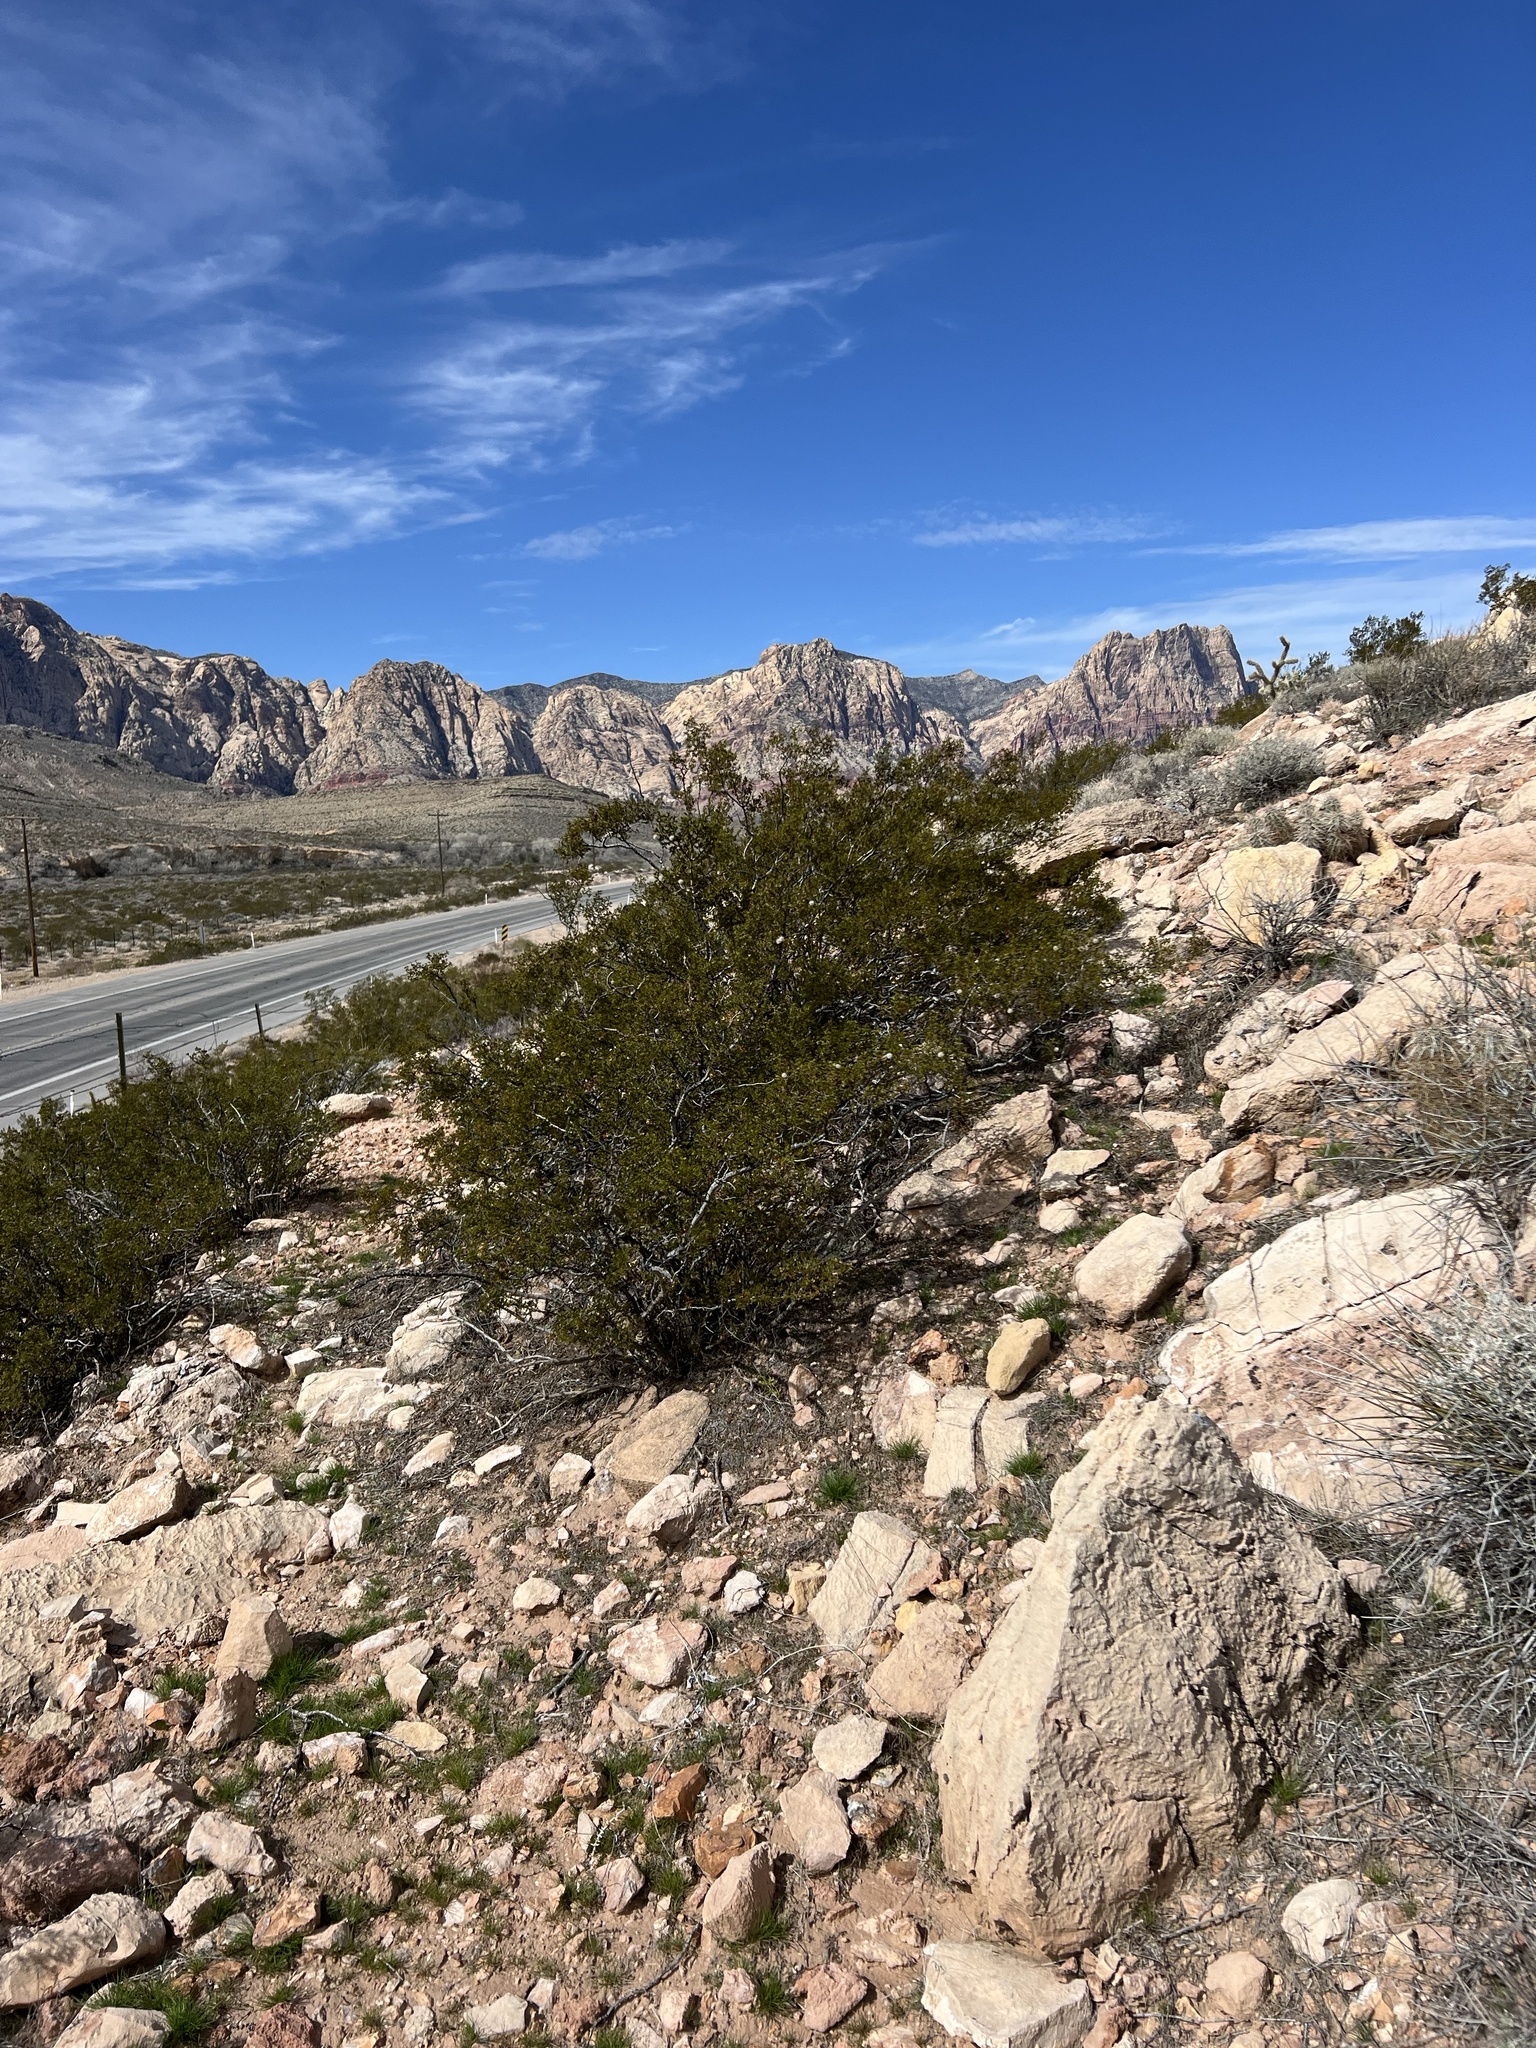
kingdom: Plantae
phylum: Tracheophyta
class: Magnoliopsida
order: Zygophyllales
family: Zygophyllaceae
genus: Larrea
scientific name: Larrea tridentata
